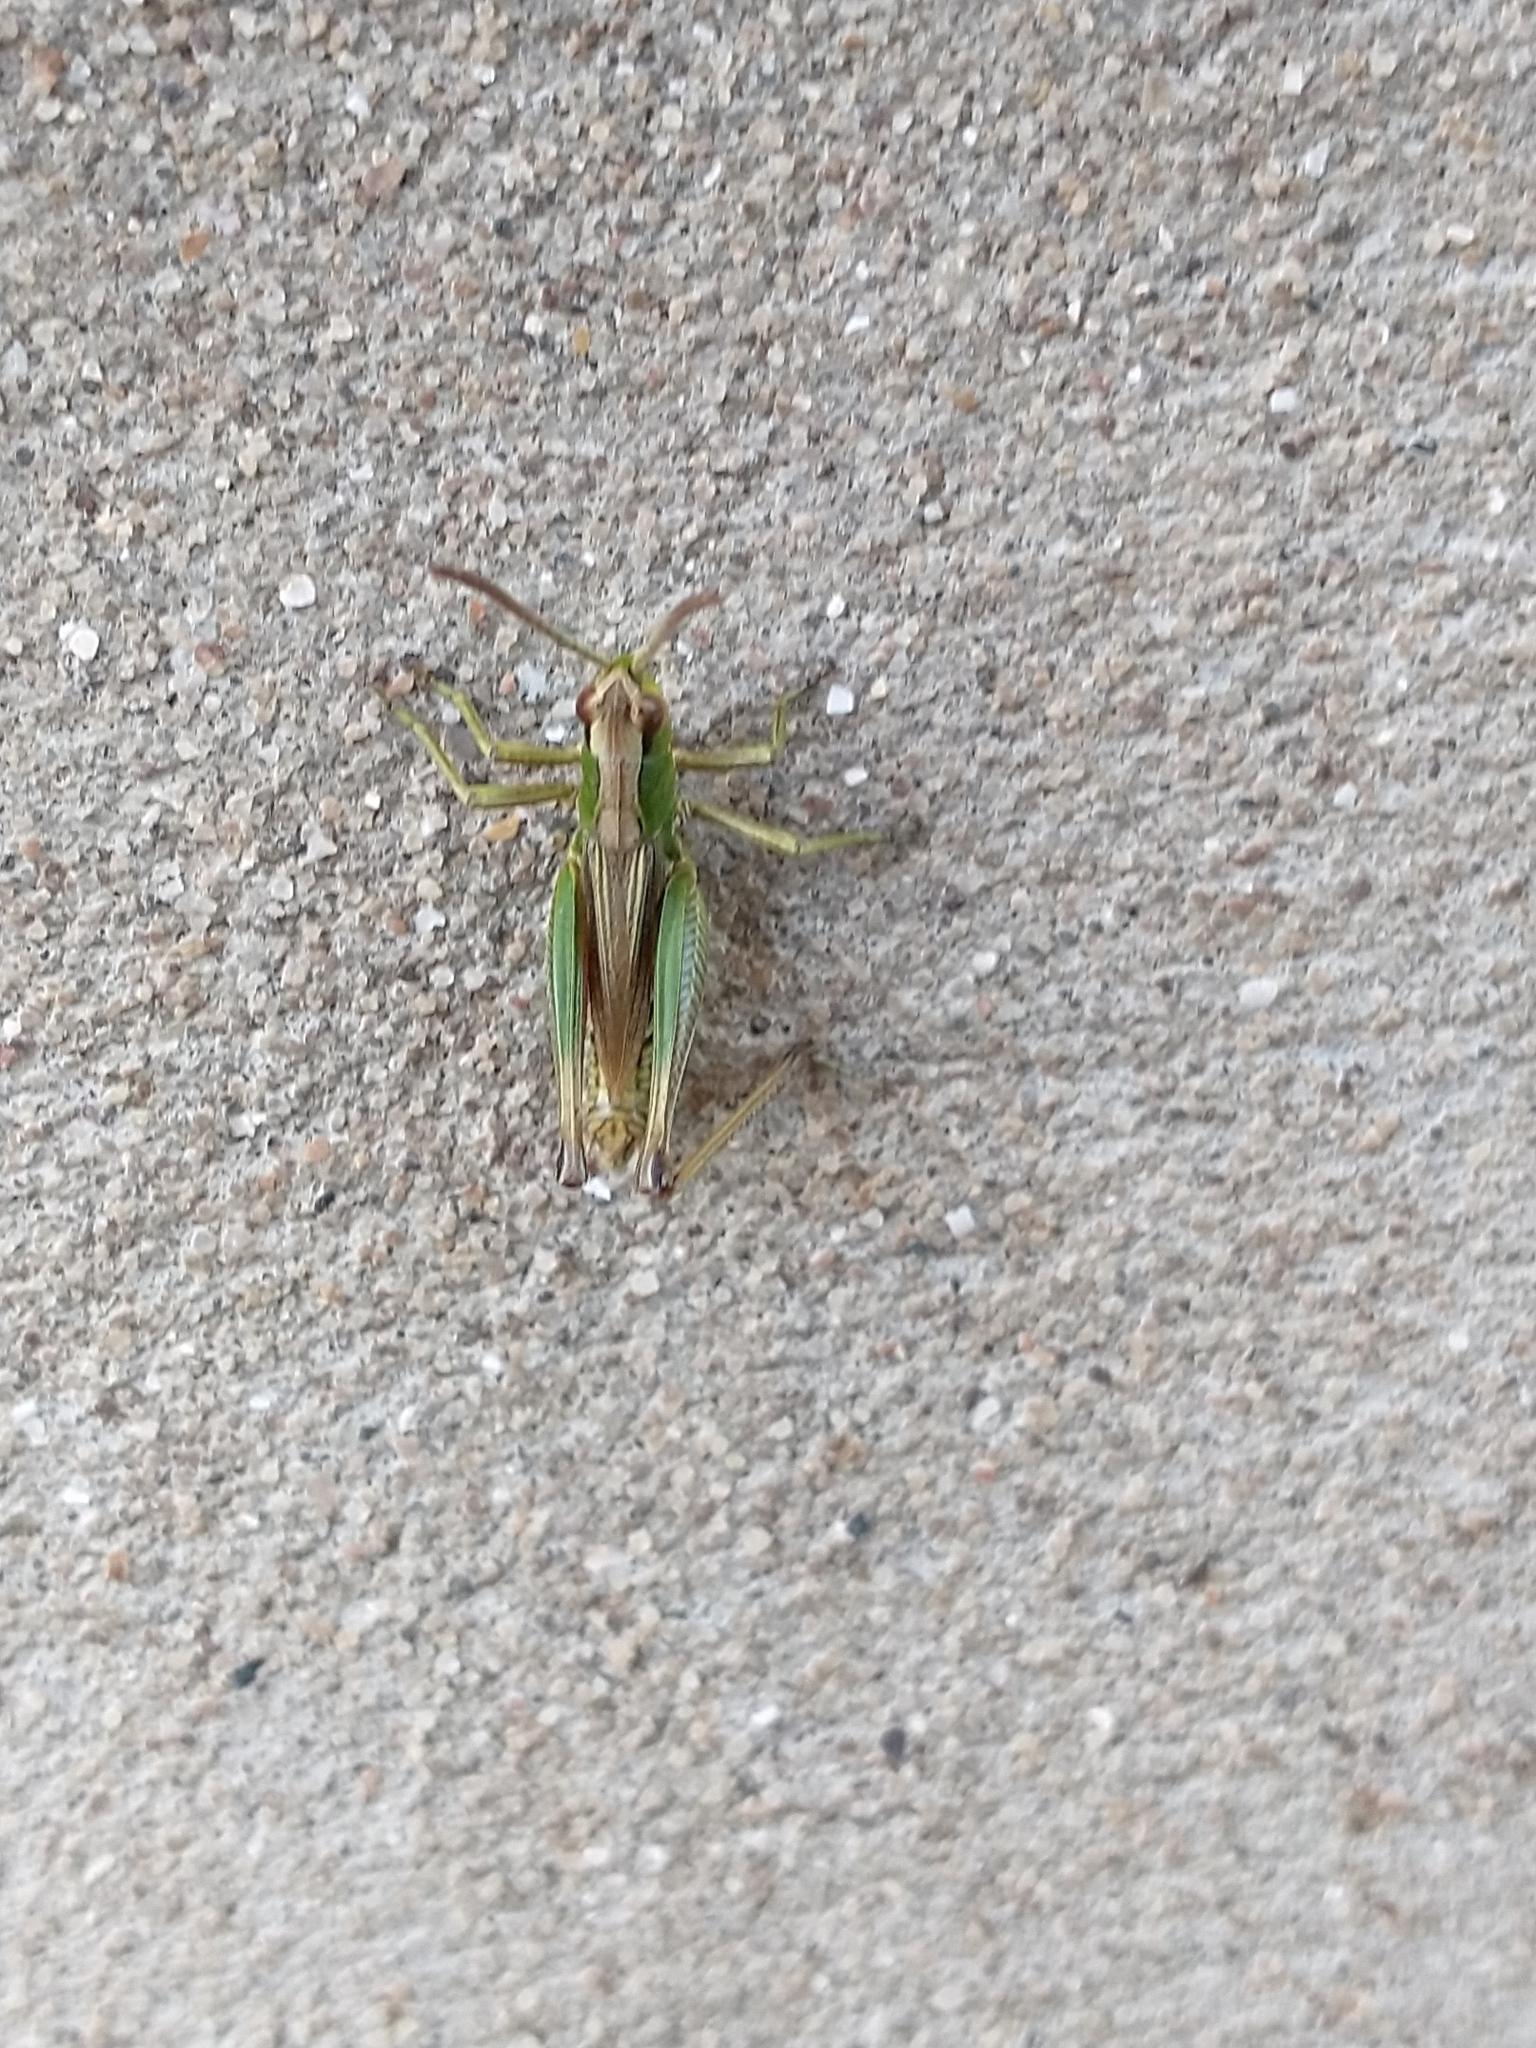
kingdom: Animalia
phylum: Arthropoda
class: Insecta
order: Orthoptera
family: Acrididae
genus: Pseudochorthippus
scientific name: Pseudochorthippus parallelus
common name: Meadow grasshopper
